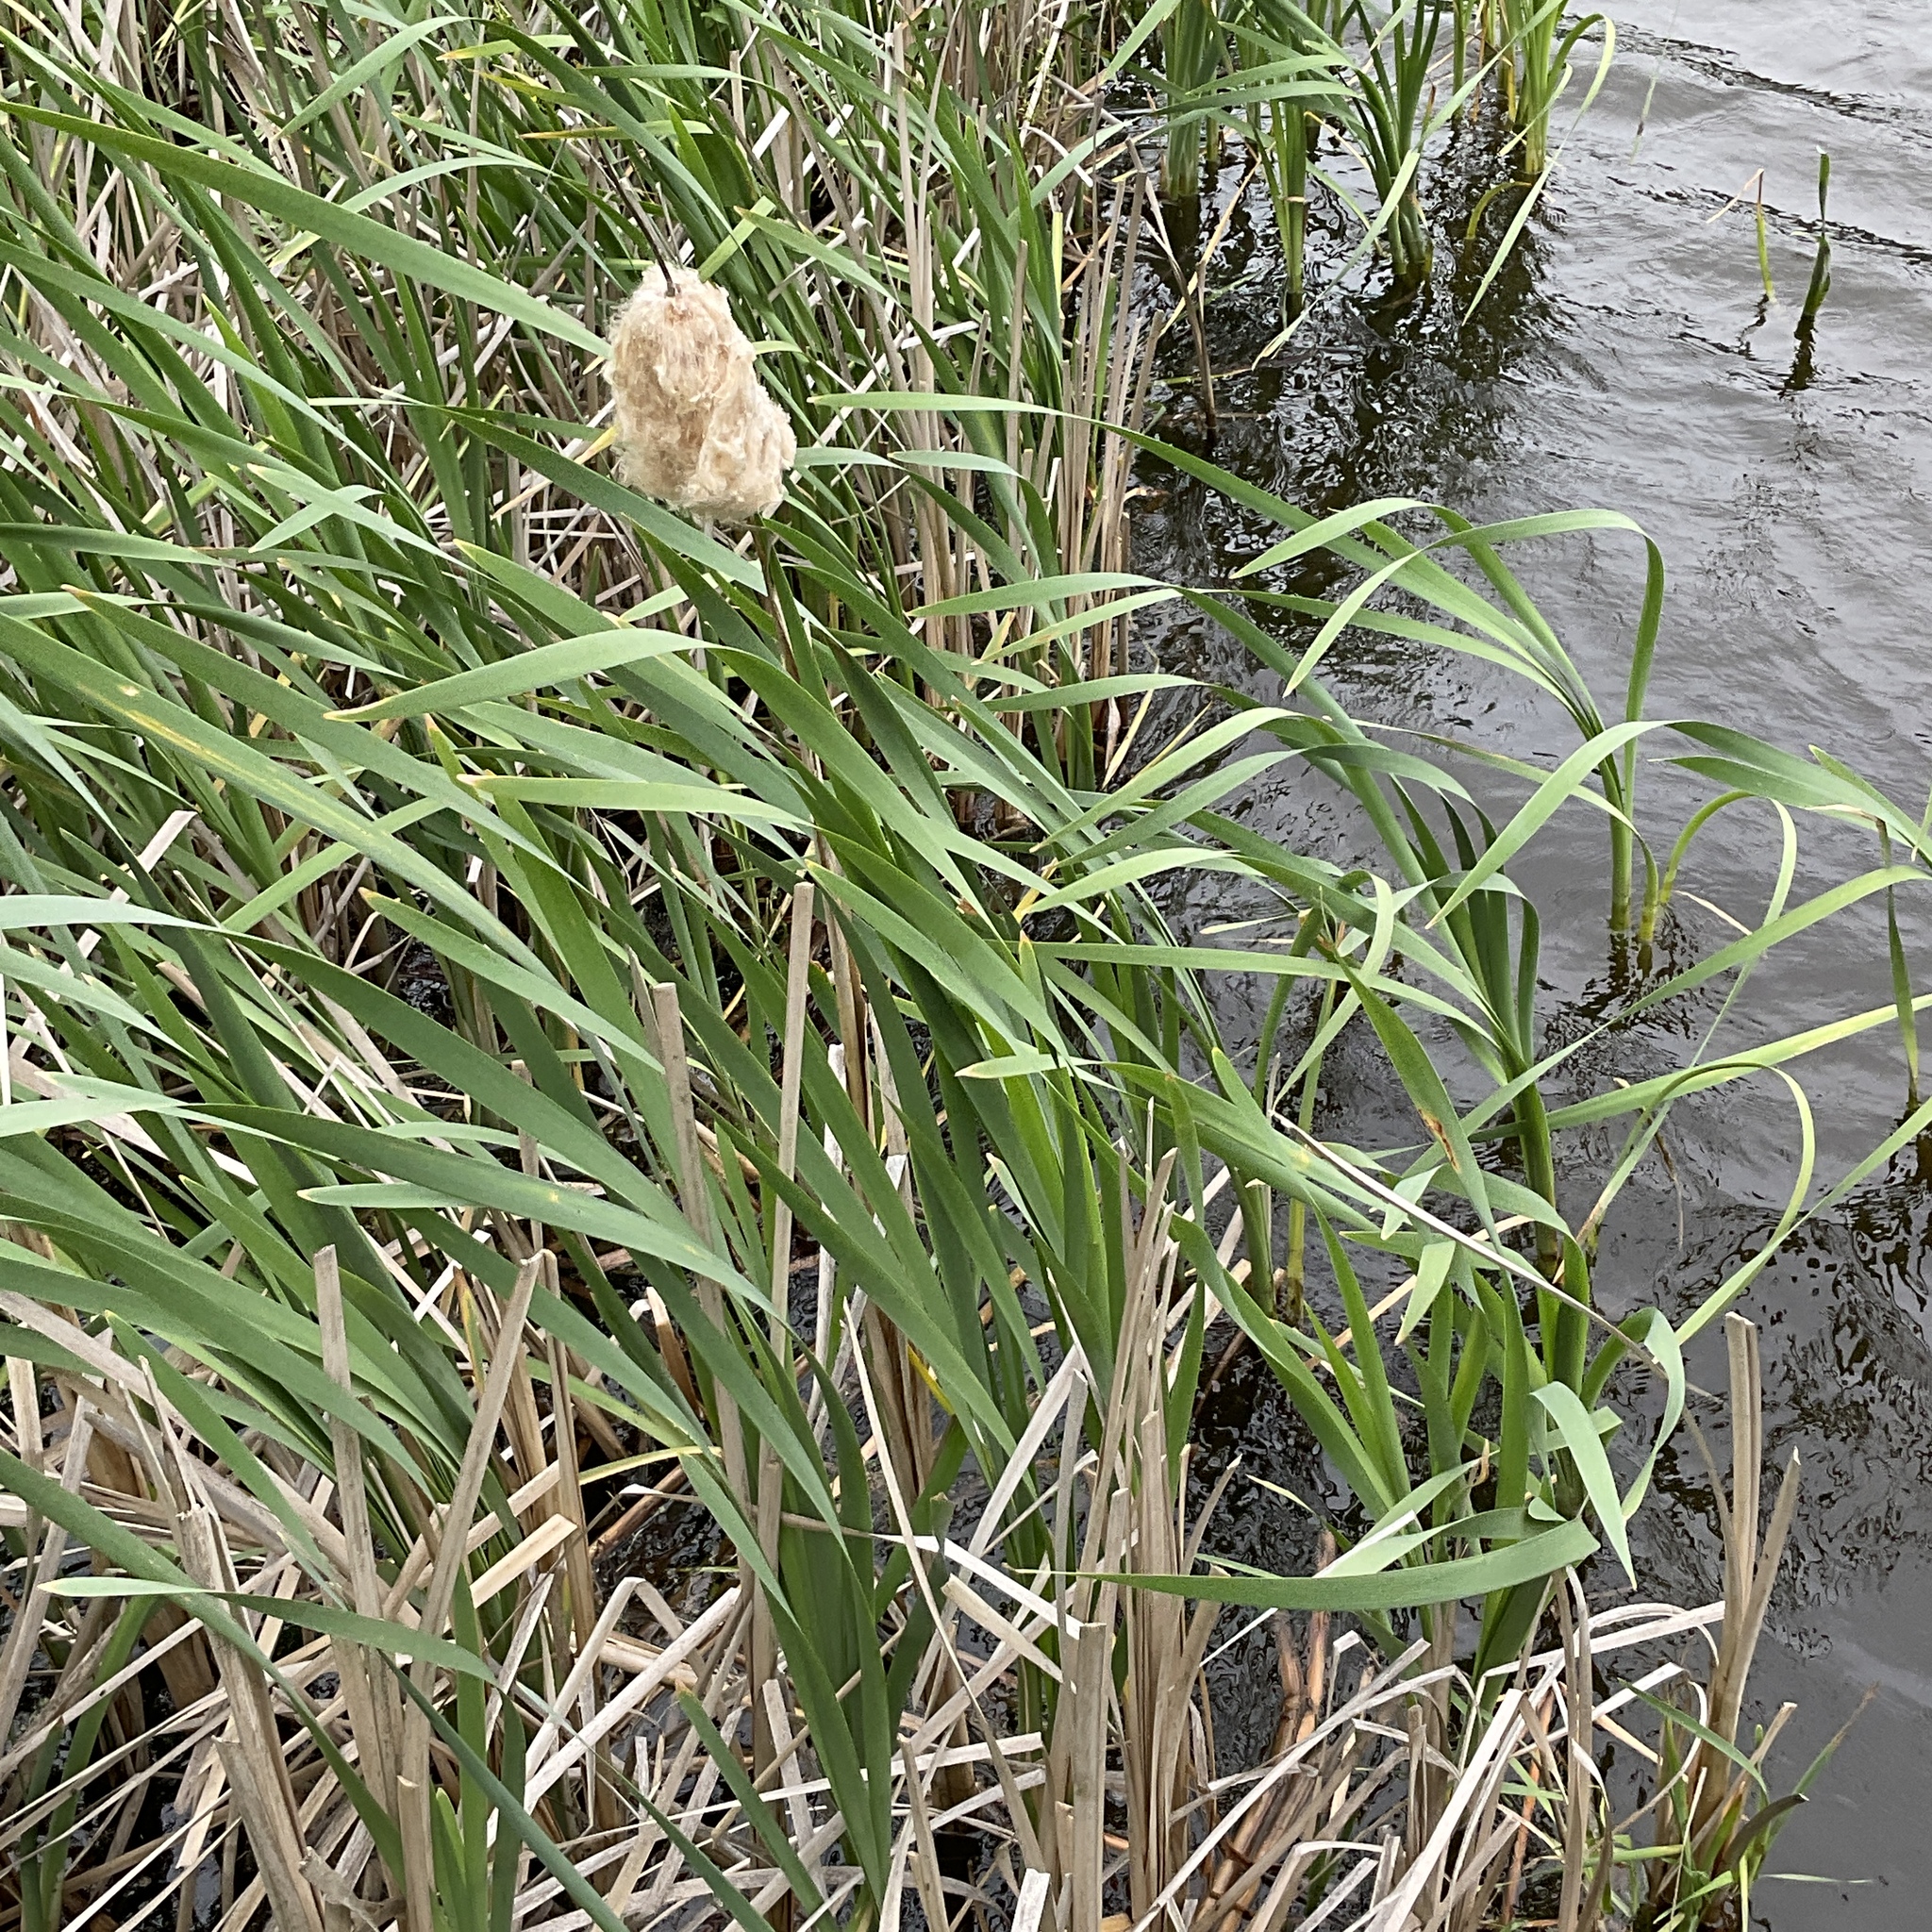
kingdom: Plantae
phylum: Tracheophyta
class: Liliopsida
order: Poales
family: Typhaceae
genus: Typha
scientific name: Typha latifolia
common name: Broadleaf cattail
